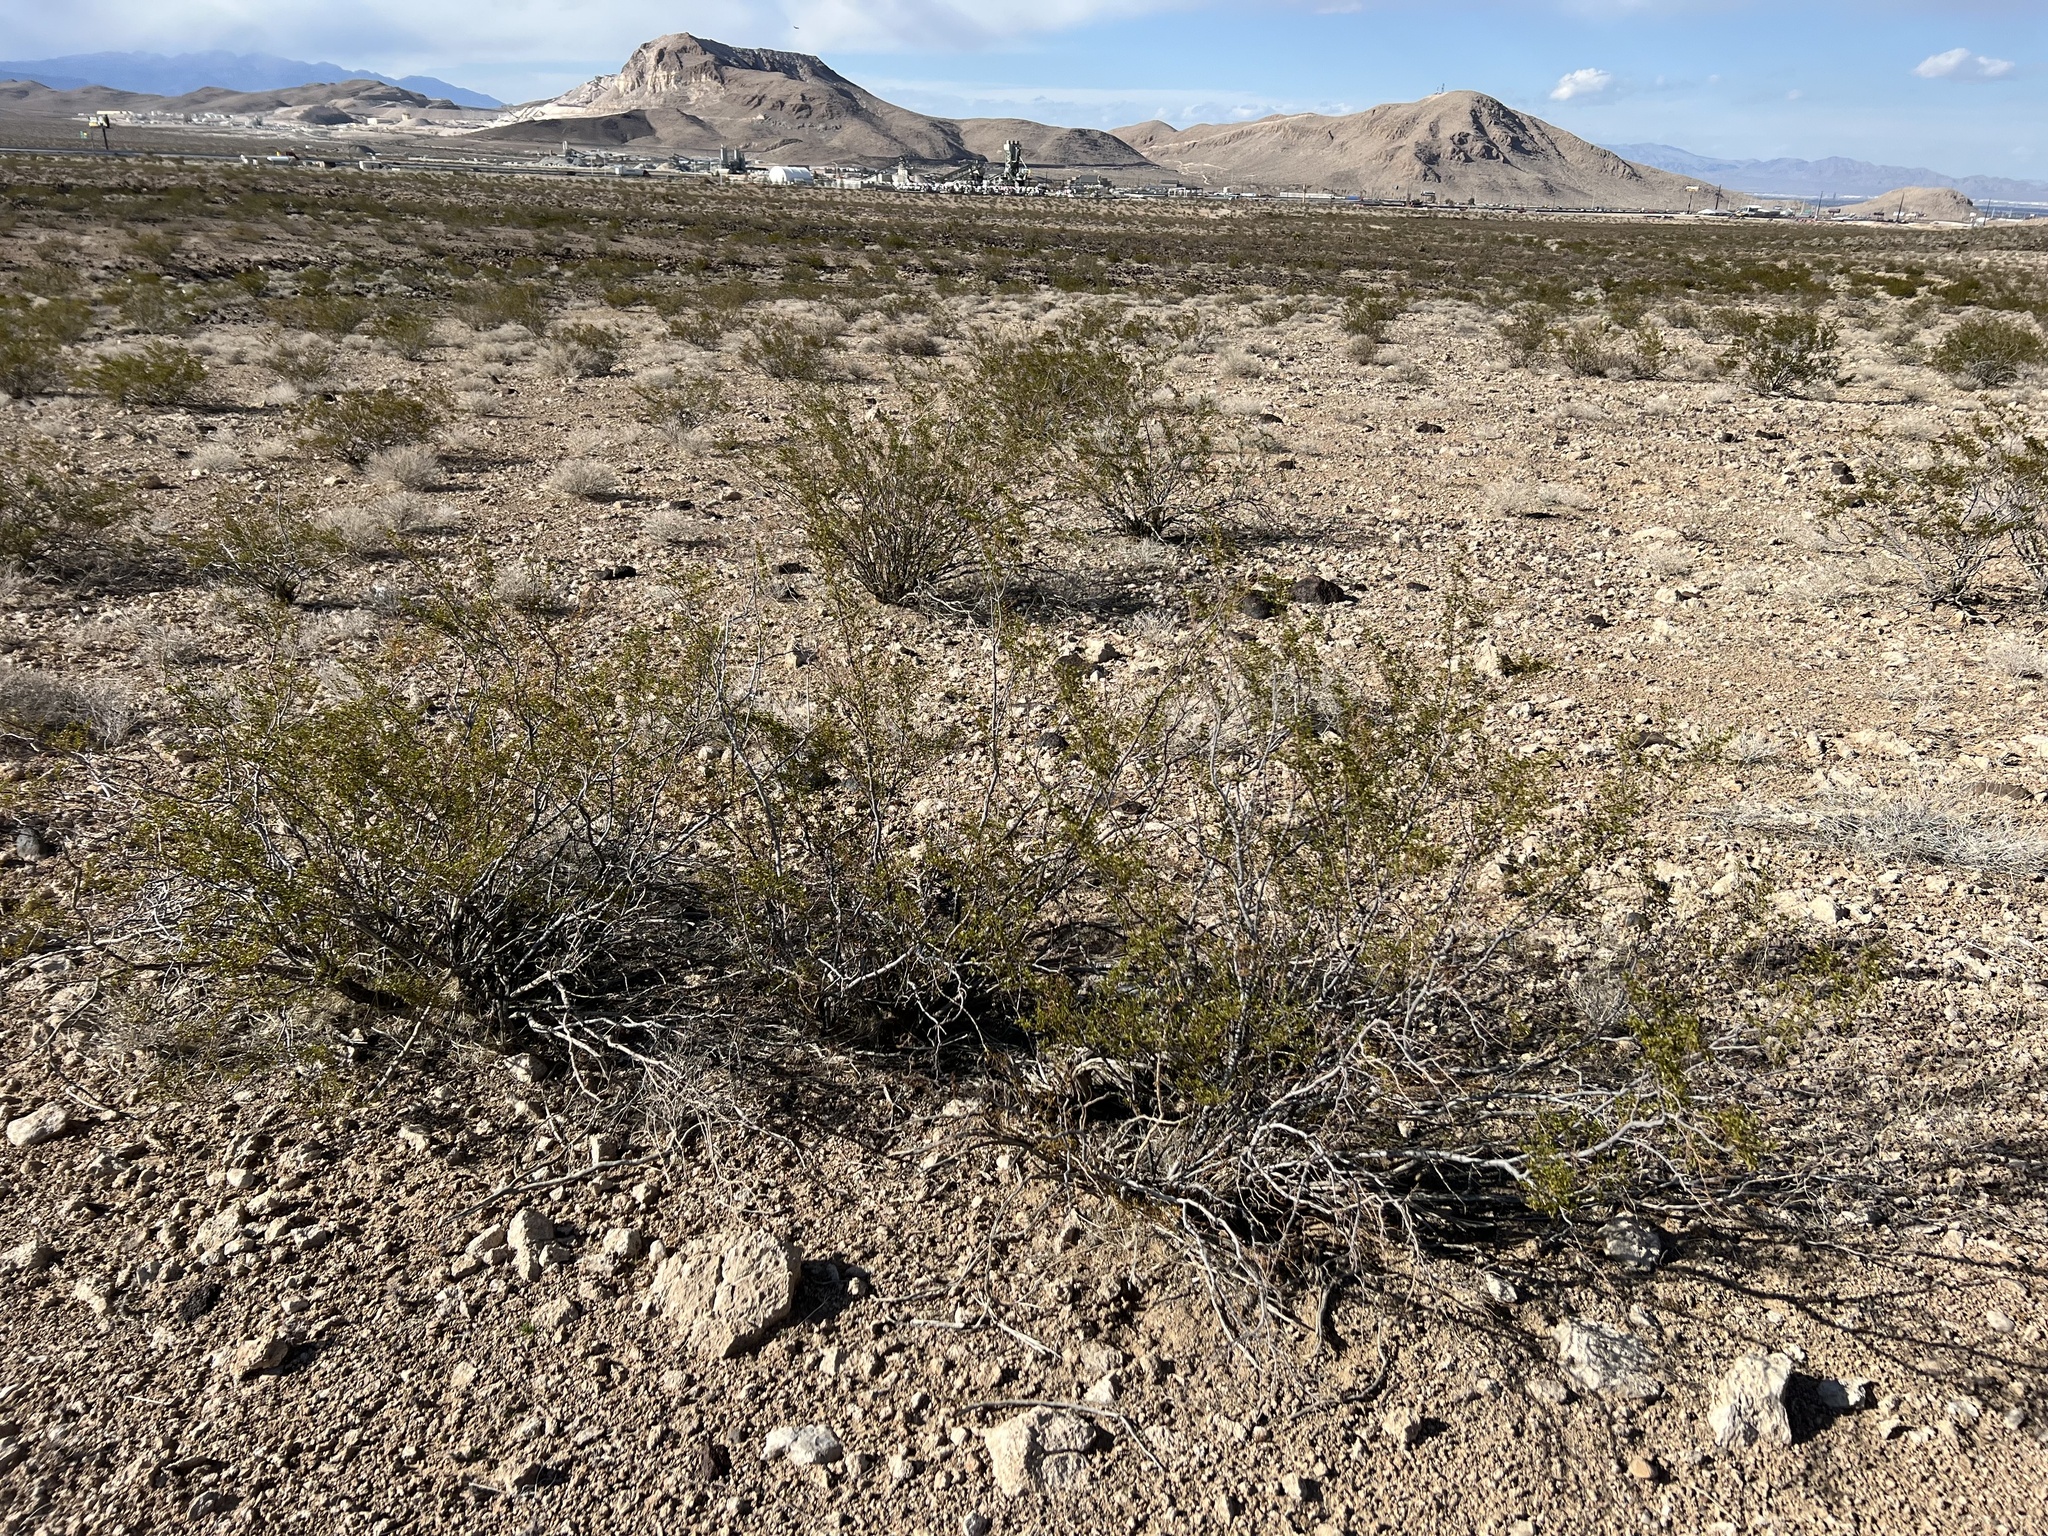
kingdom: Plantae
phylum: Tracheophyta
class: Magnoliopsida
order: Zygophyllales
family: Zygophyllaceae
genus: Larrea
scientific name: Larrea tridentata
